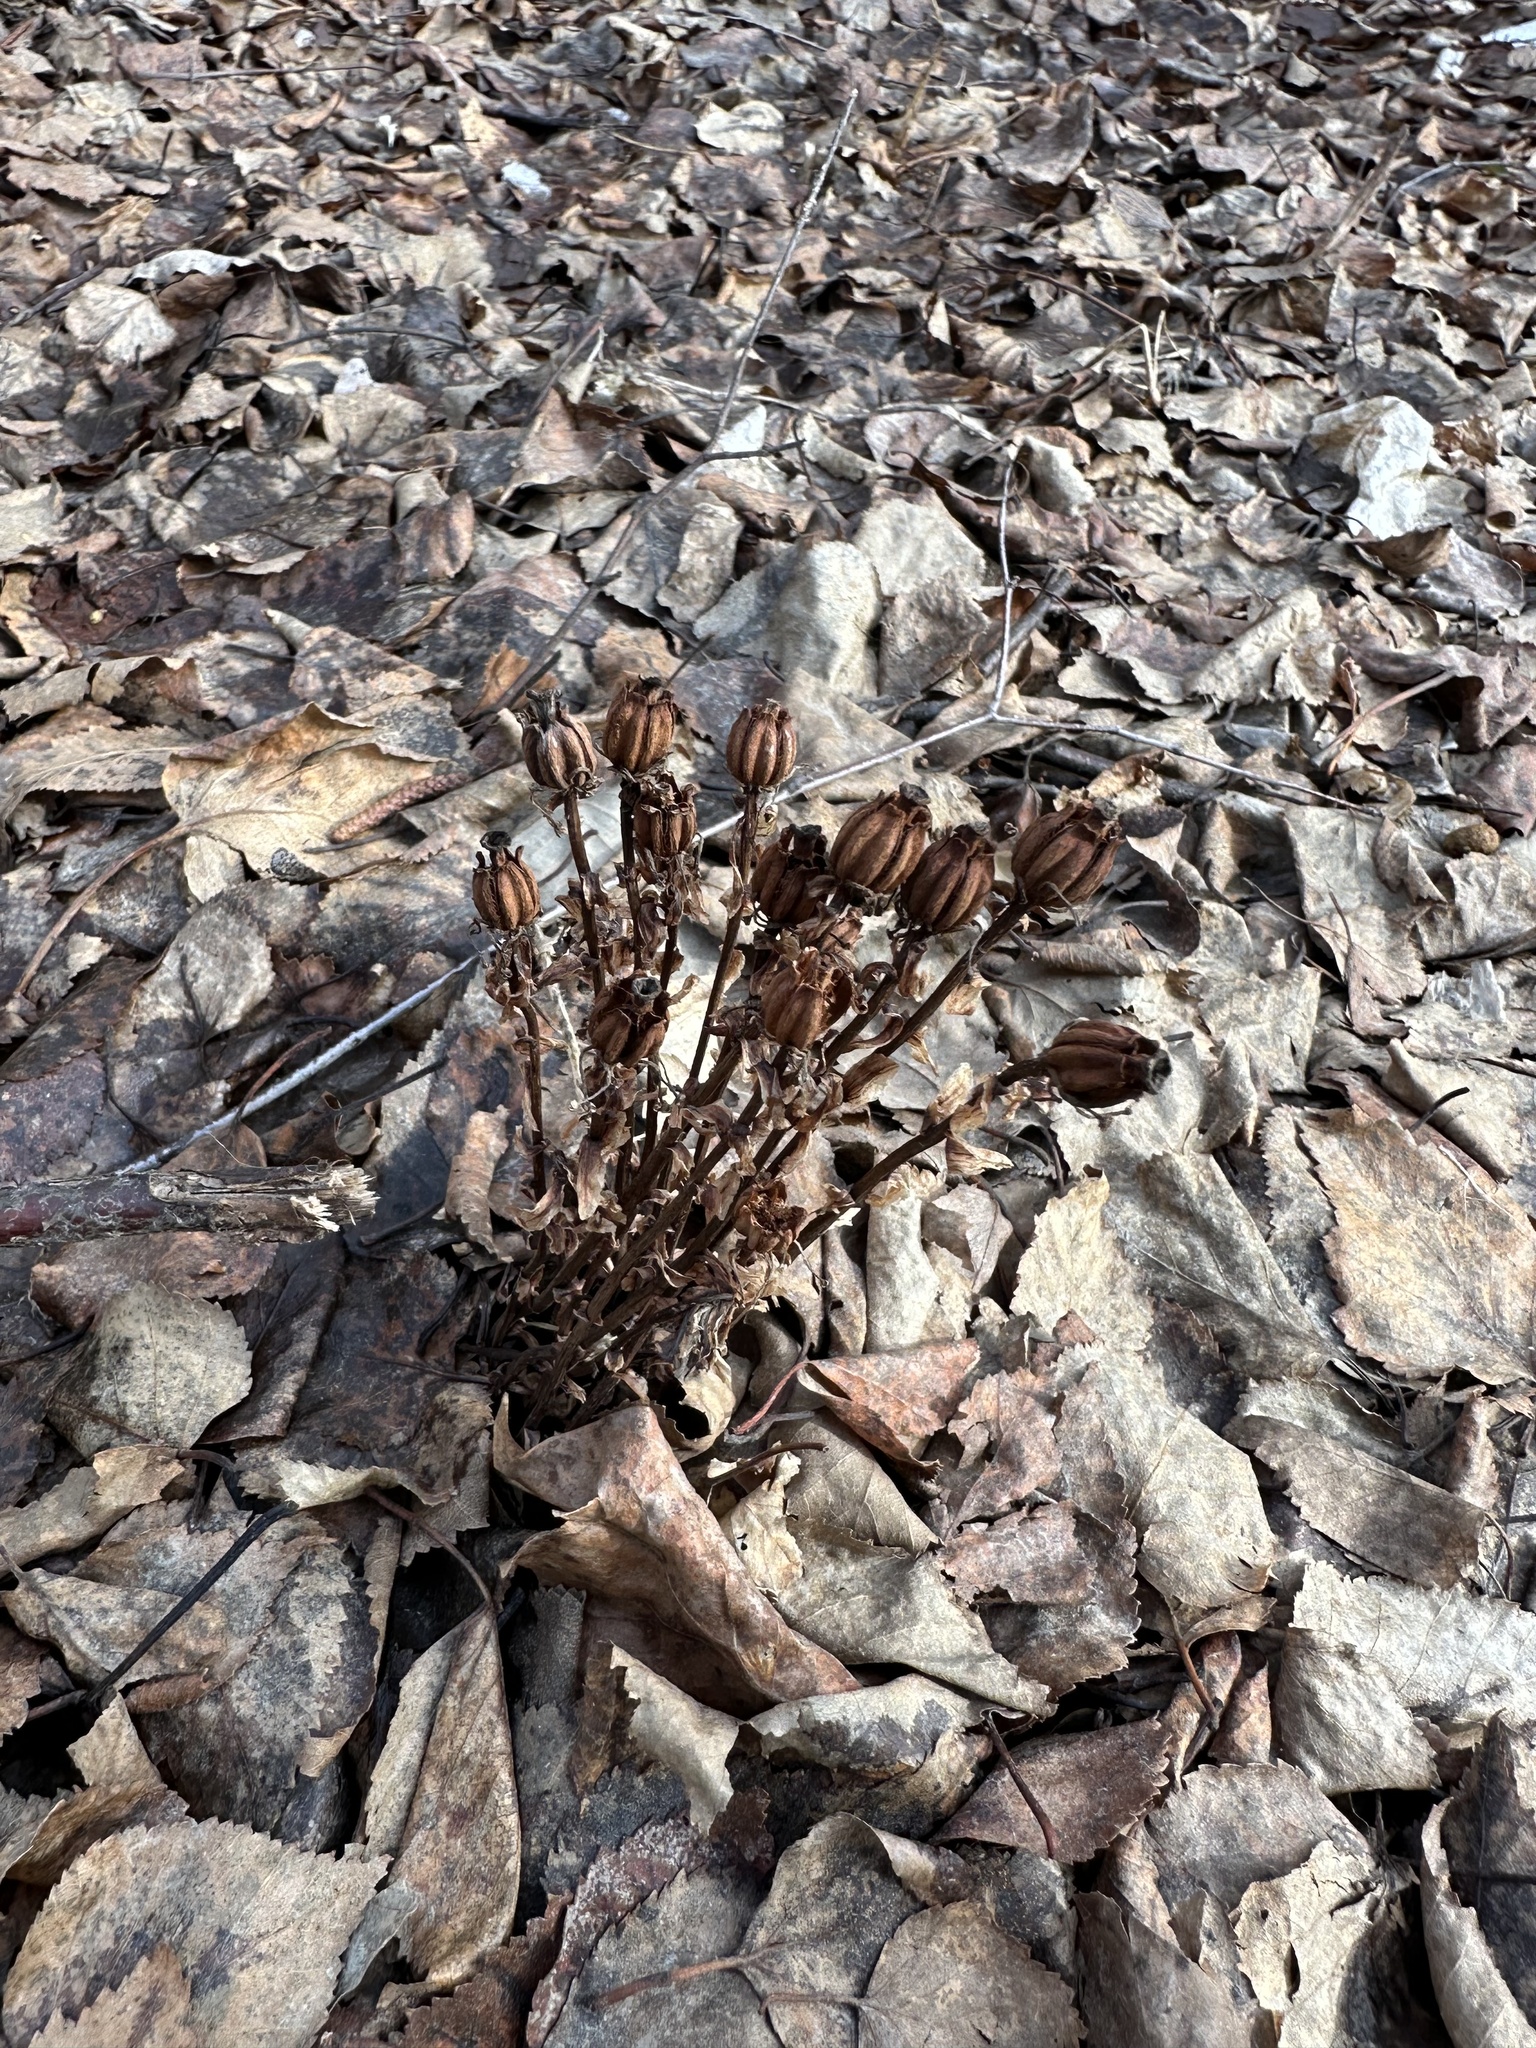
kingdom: Plantae
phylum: Tracheophyta
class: Magnoliopsida
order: Ericales
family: Ericaceae
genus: Monotropa
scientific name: Monotropa uniflora
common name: Convulsion root
